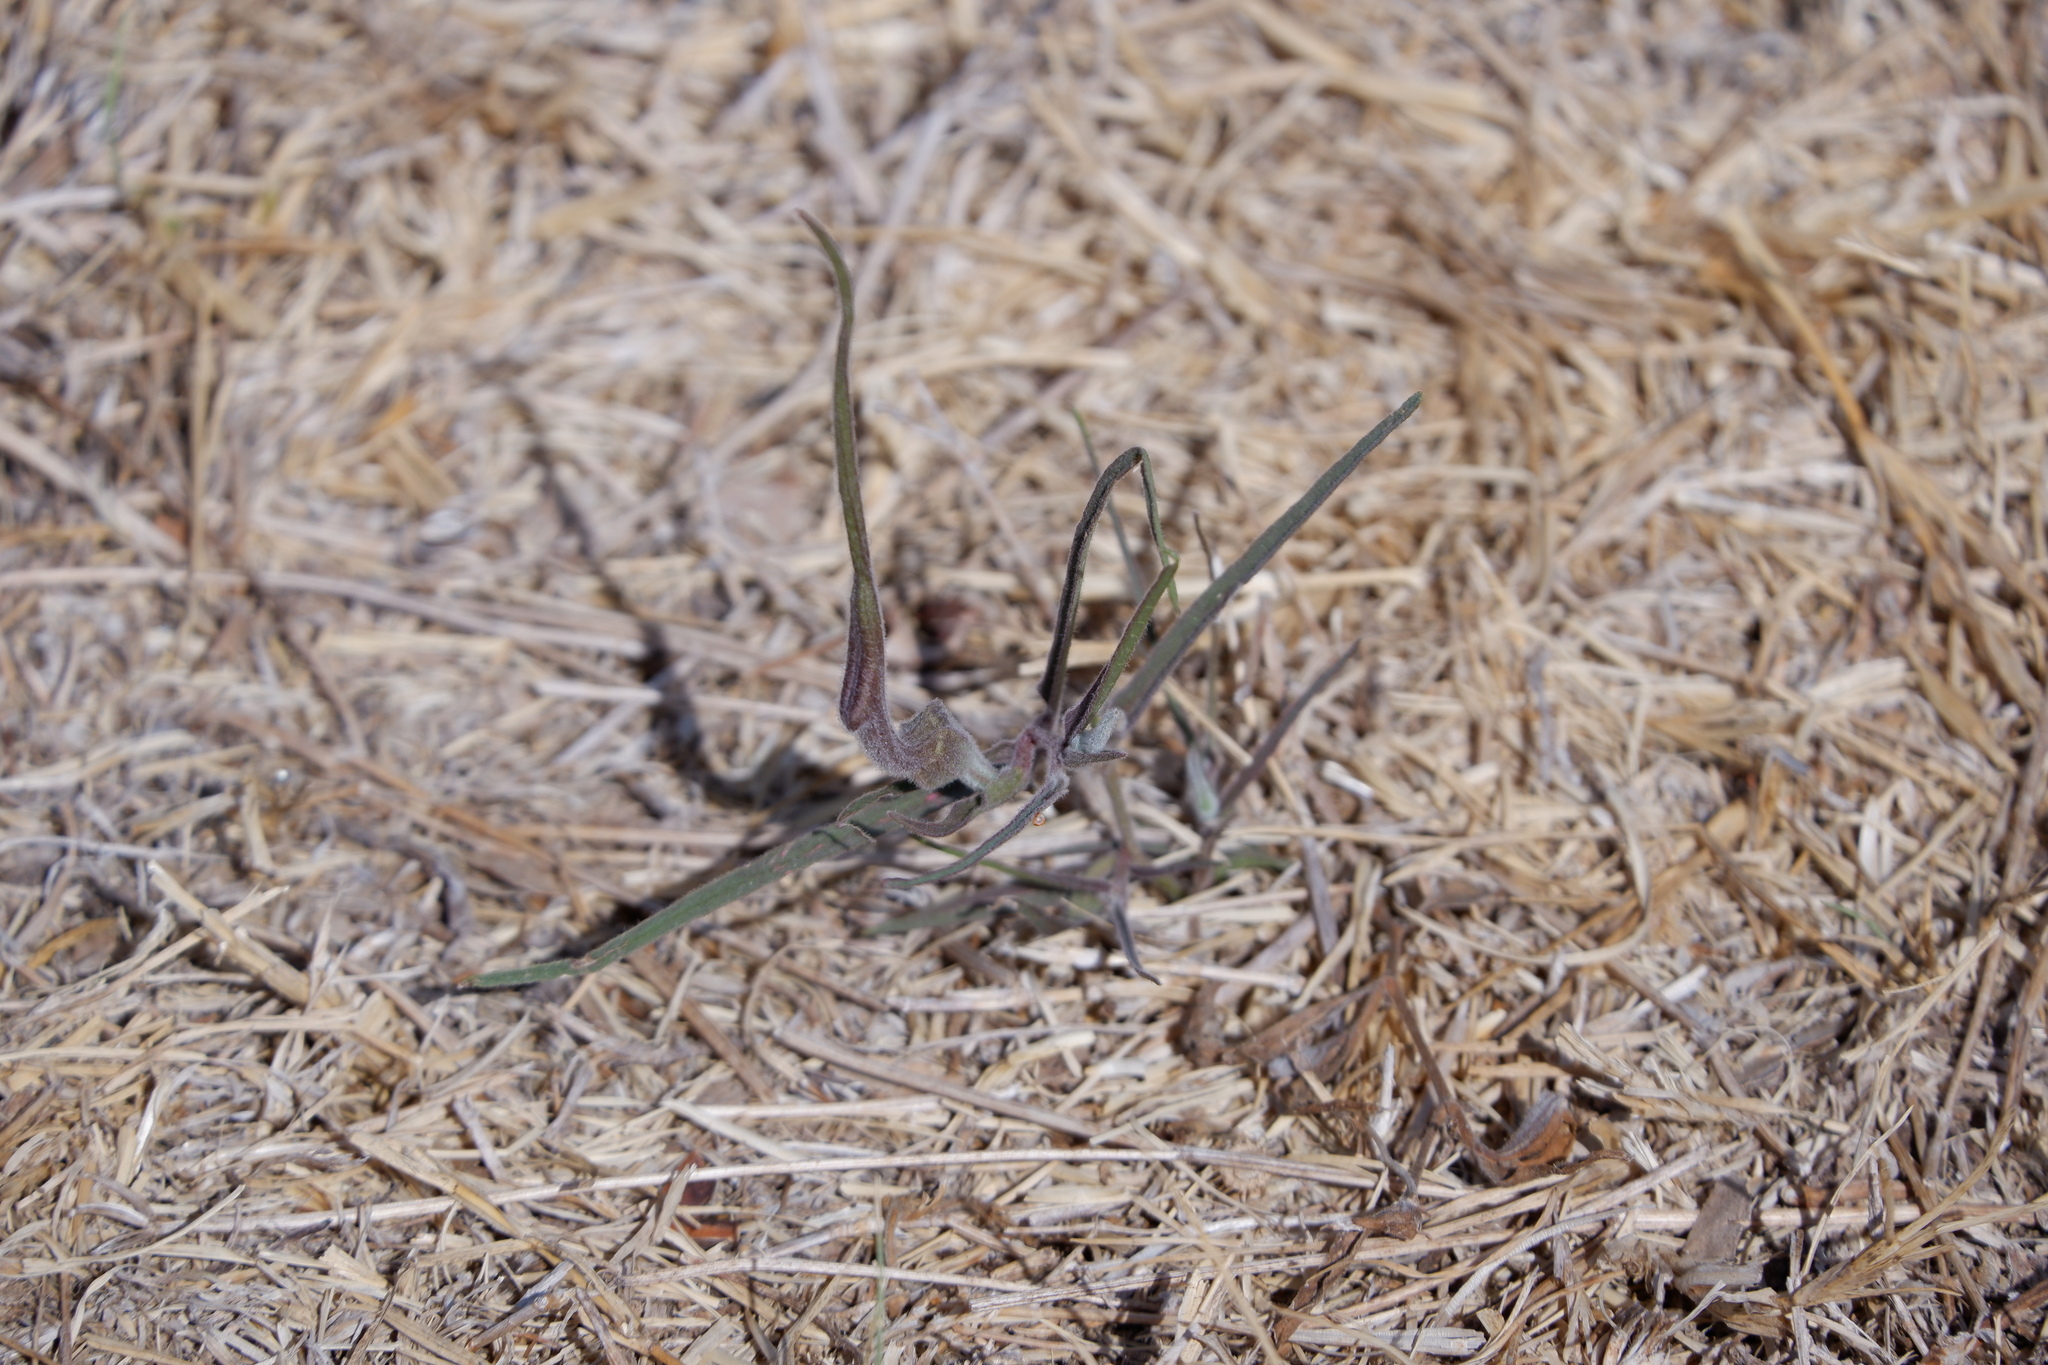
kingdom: Plantae
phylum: Tracheophyta
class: Magnoliopsida
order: Piperales
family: Aristolochiaceae
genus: Aristolochia
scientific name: Aristolochia erecta
